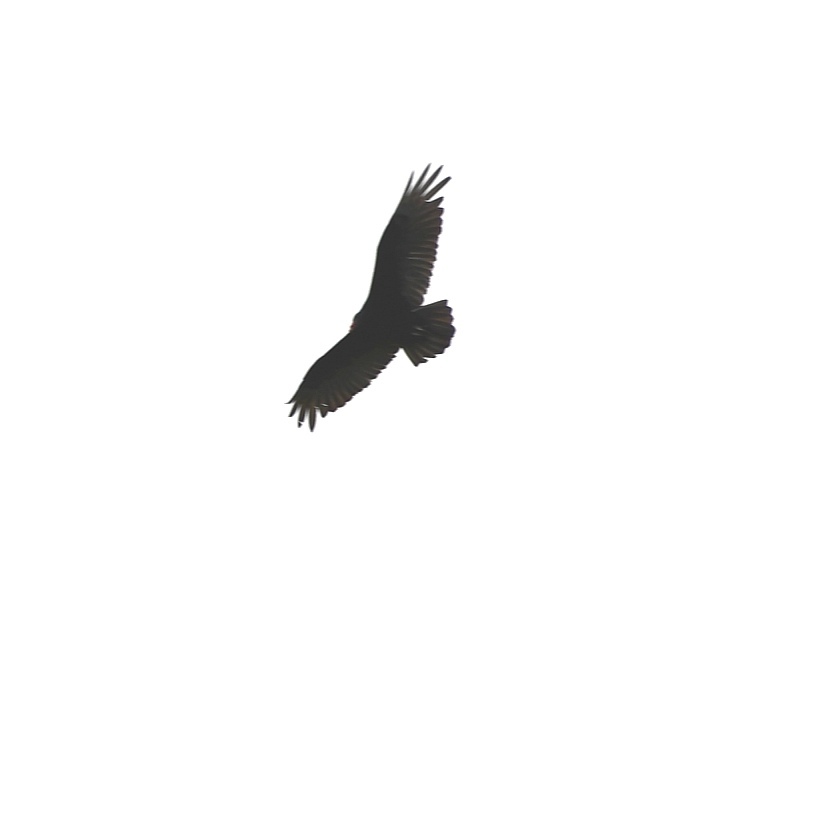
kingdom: Animalia
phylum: Chordata
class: Aves
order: Accipitriformes
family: Cathartidae
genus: Cathartes
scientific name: Cathartes aura
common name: Turkey vulture
